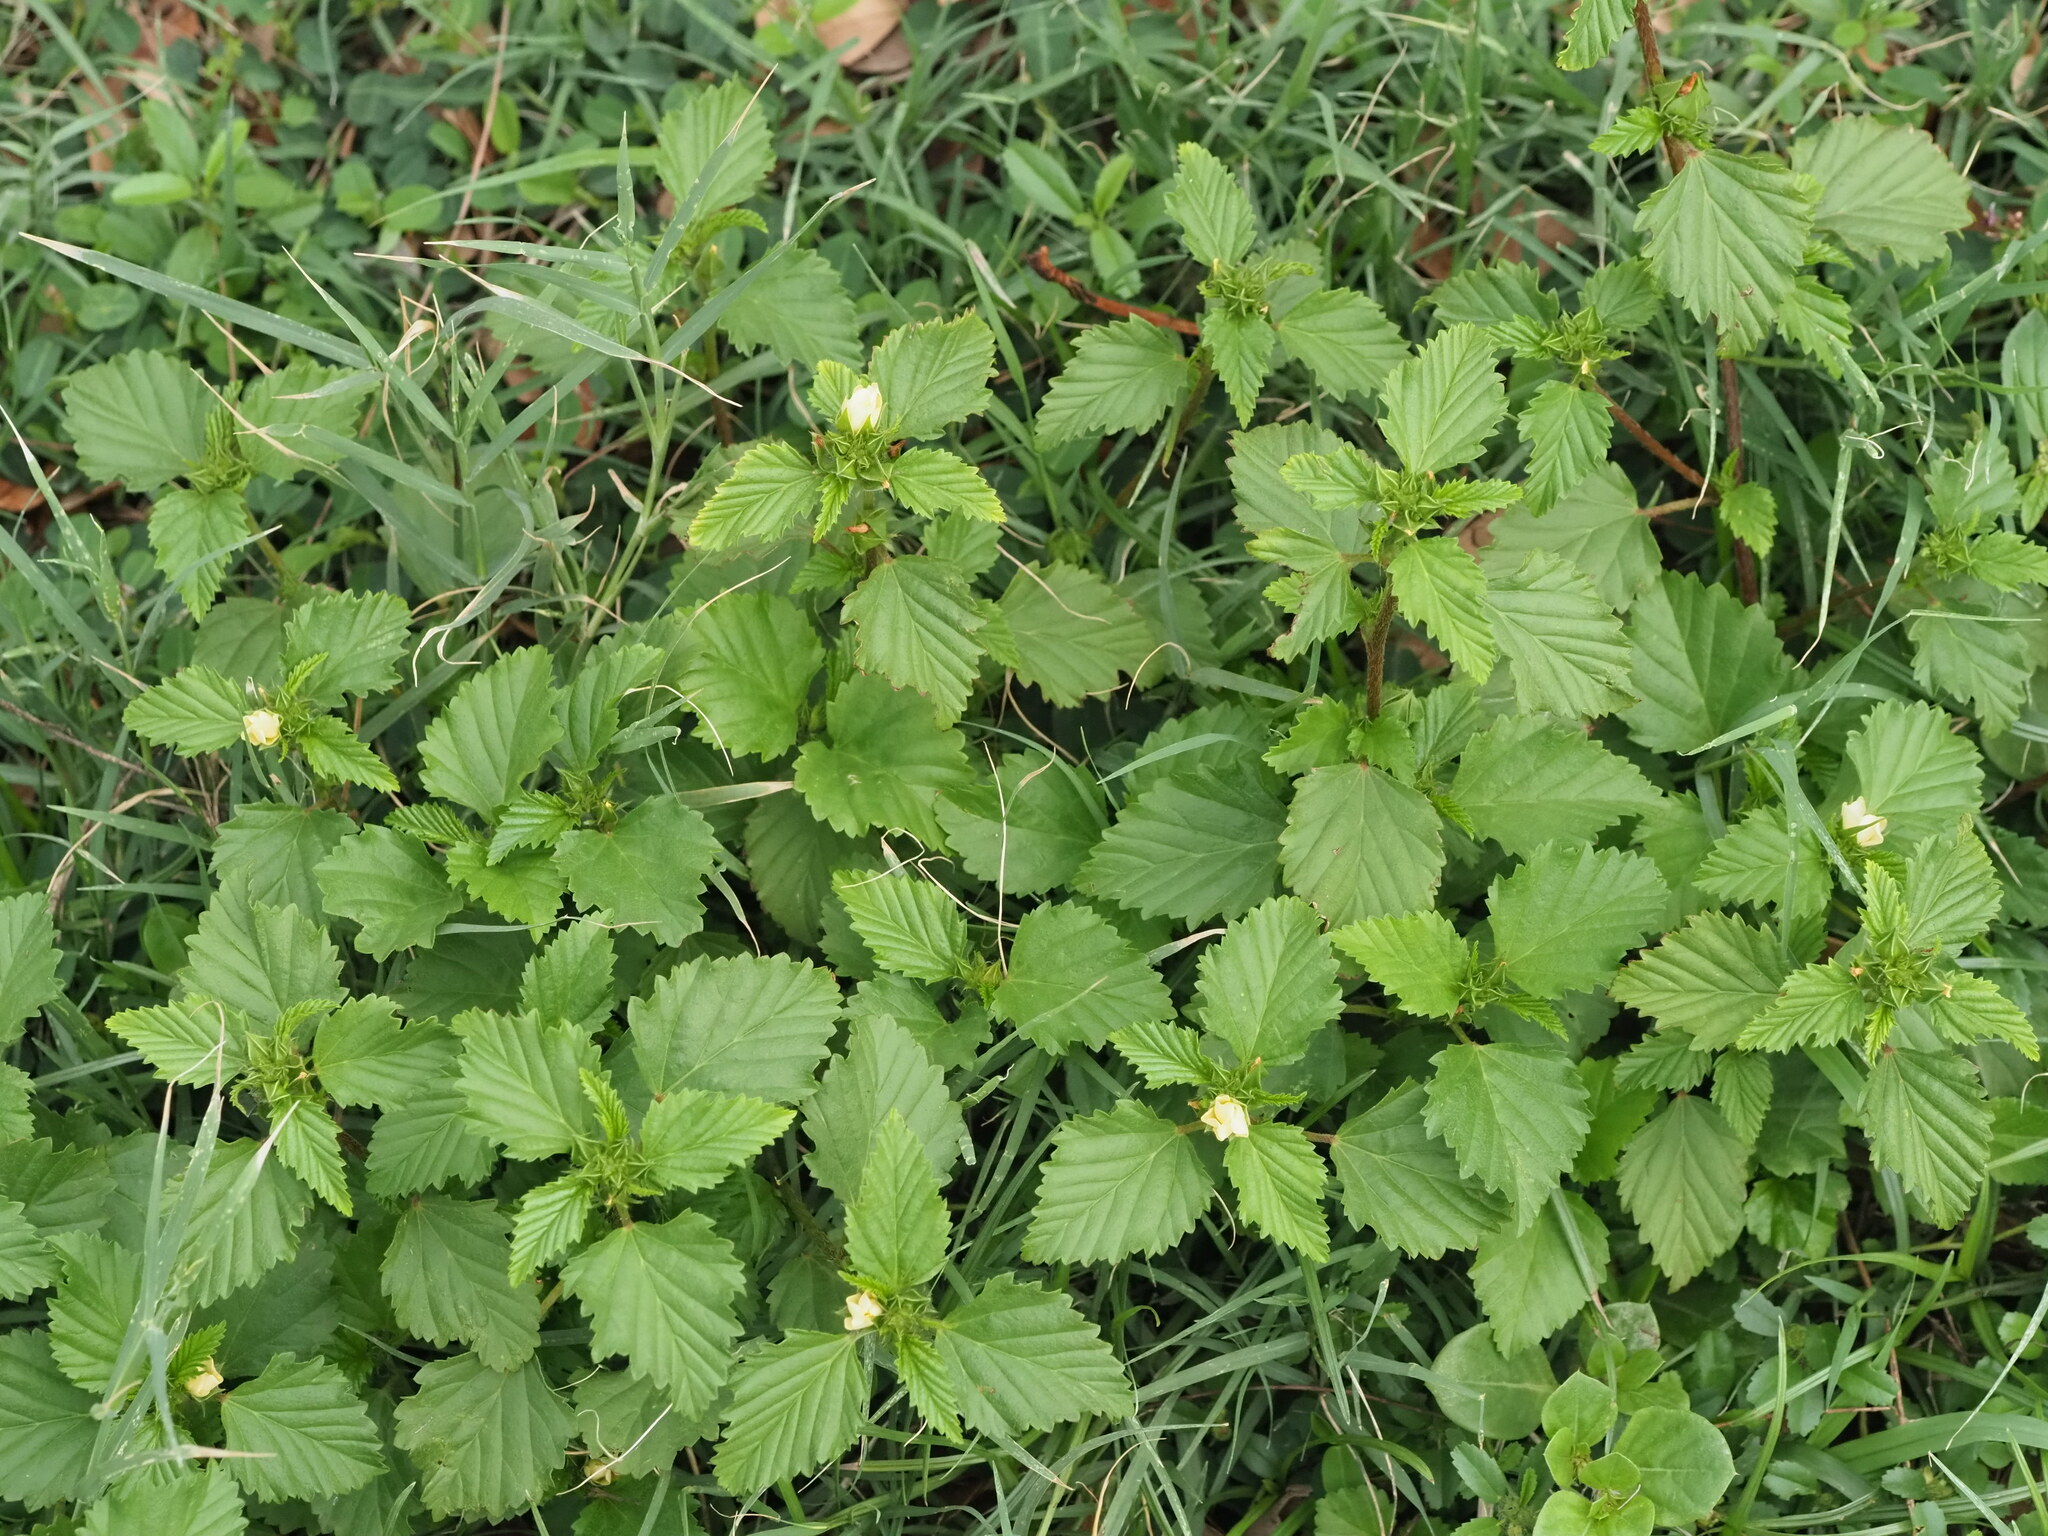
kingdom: Plantae
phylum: Tracheophyta
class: Magnoliopsida
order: Malvales
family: Malvaceae
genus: Malvastrum
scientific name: Malvastrum coromandelianum
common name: Threelobe false mallow
